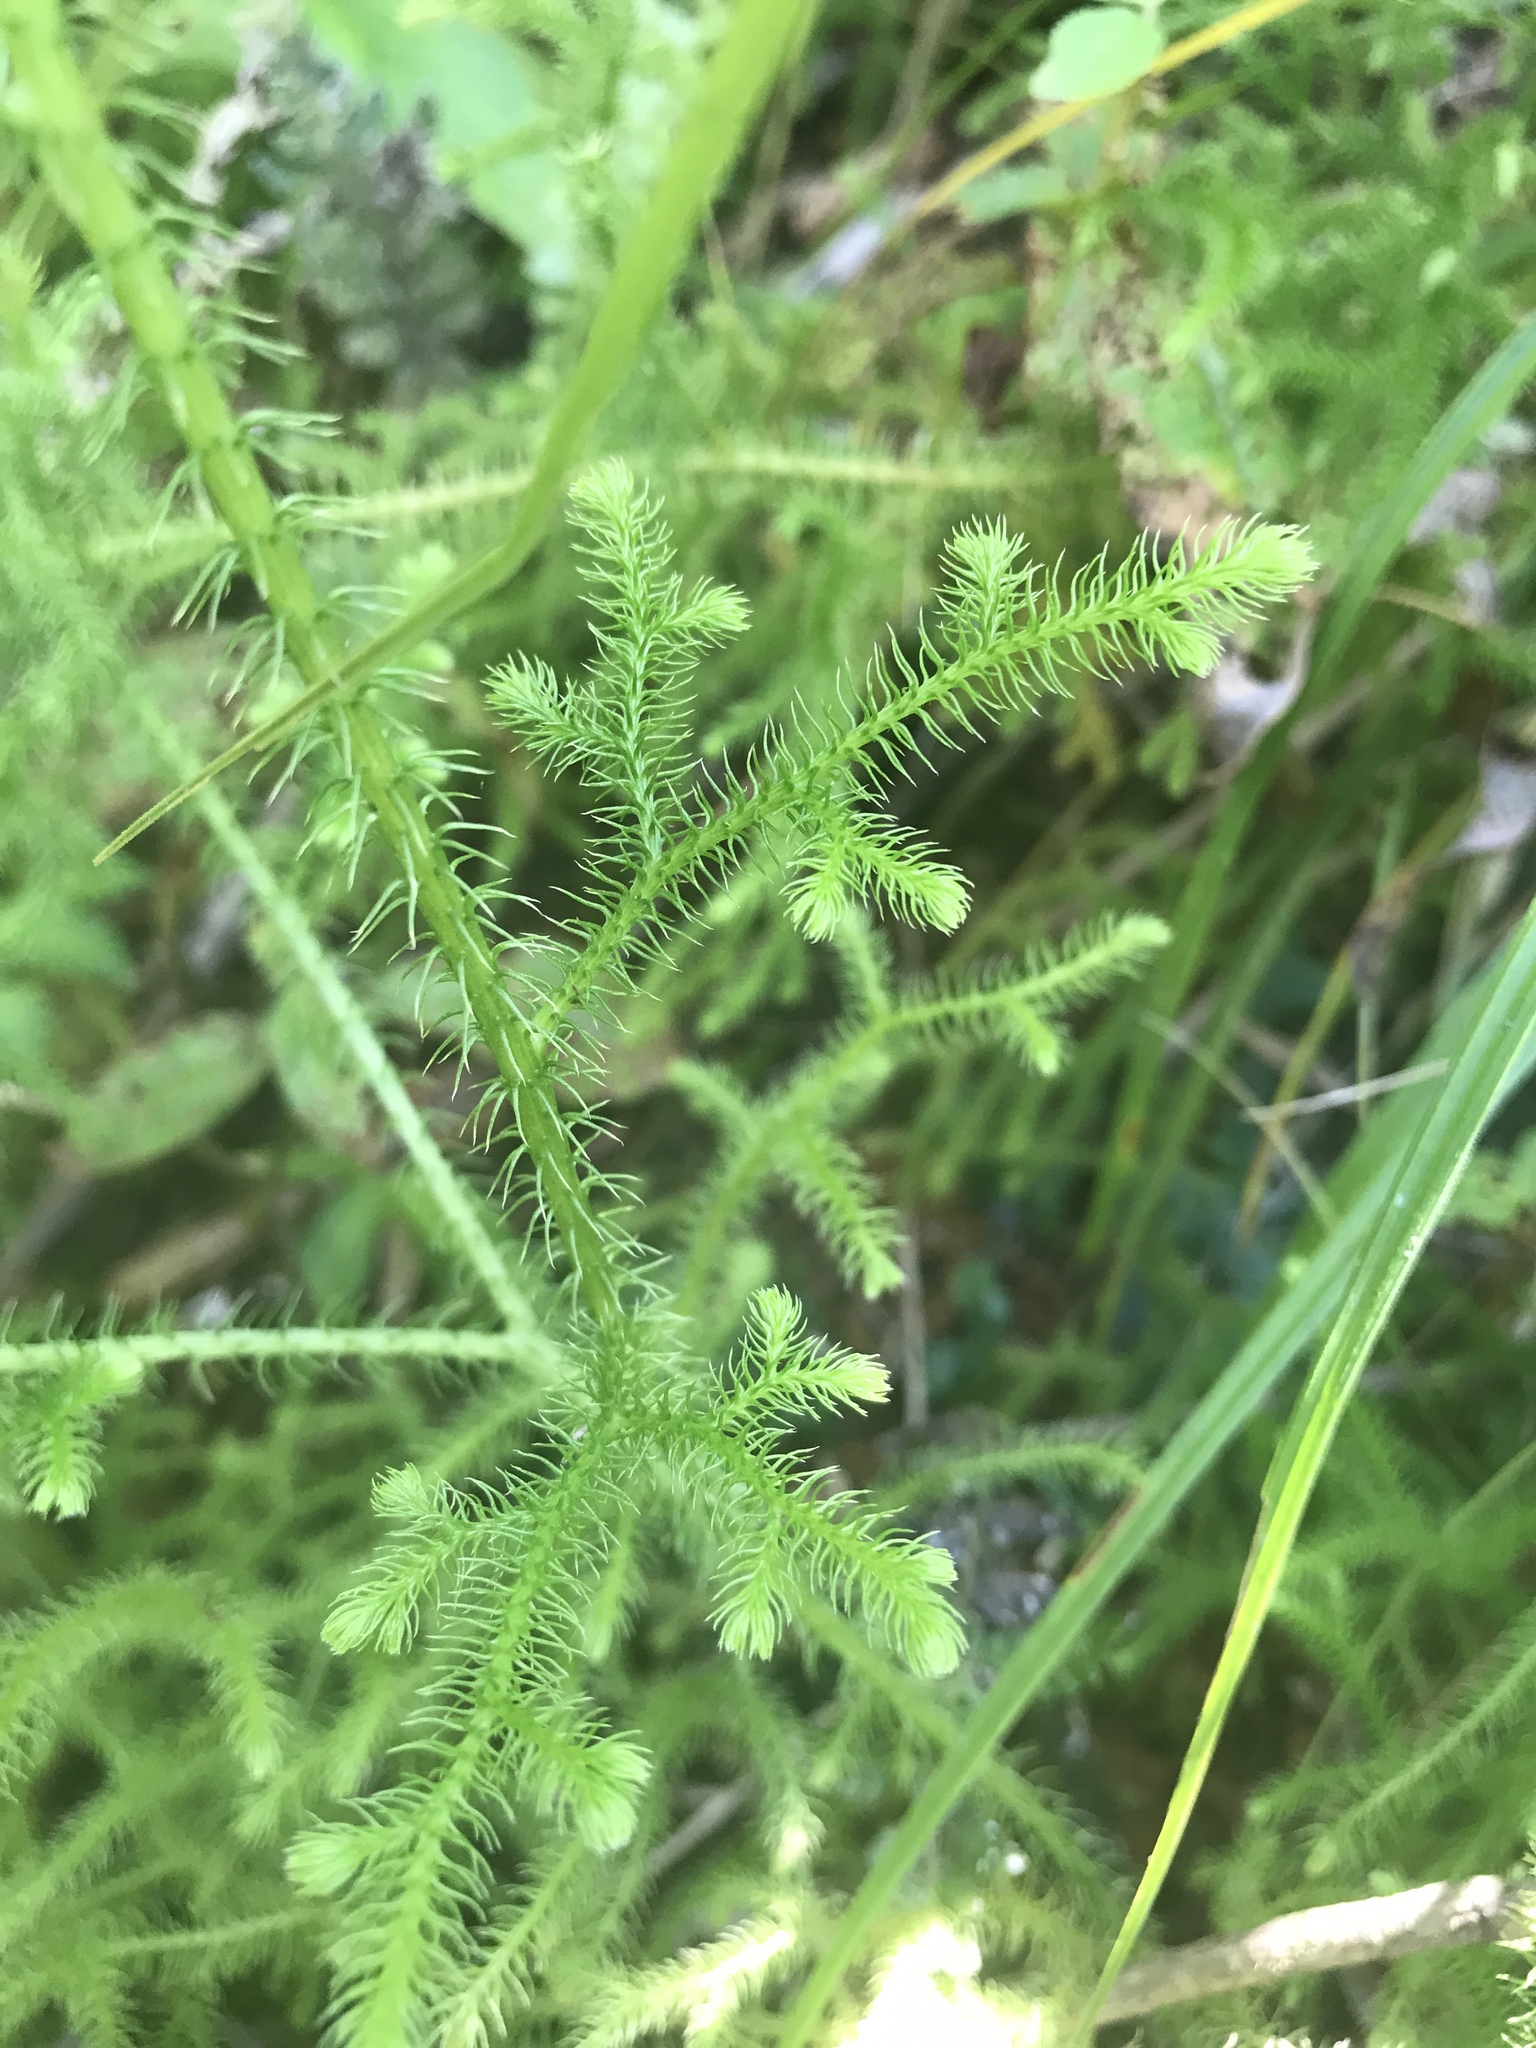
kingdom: Plantae
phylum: Tracheophyta
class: Lycopodiopsida
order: Lycopodiales
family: Lycopodiaceae
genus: Palhinhaea
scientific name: Palhinhaea cernua
